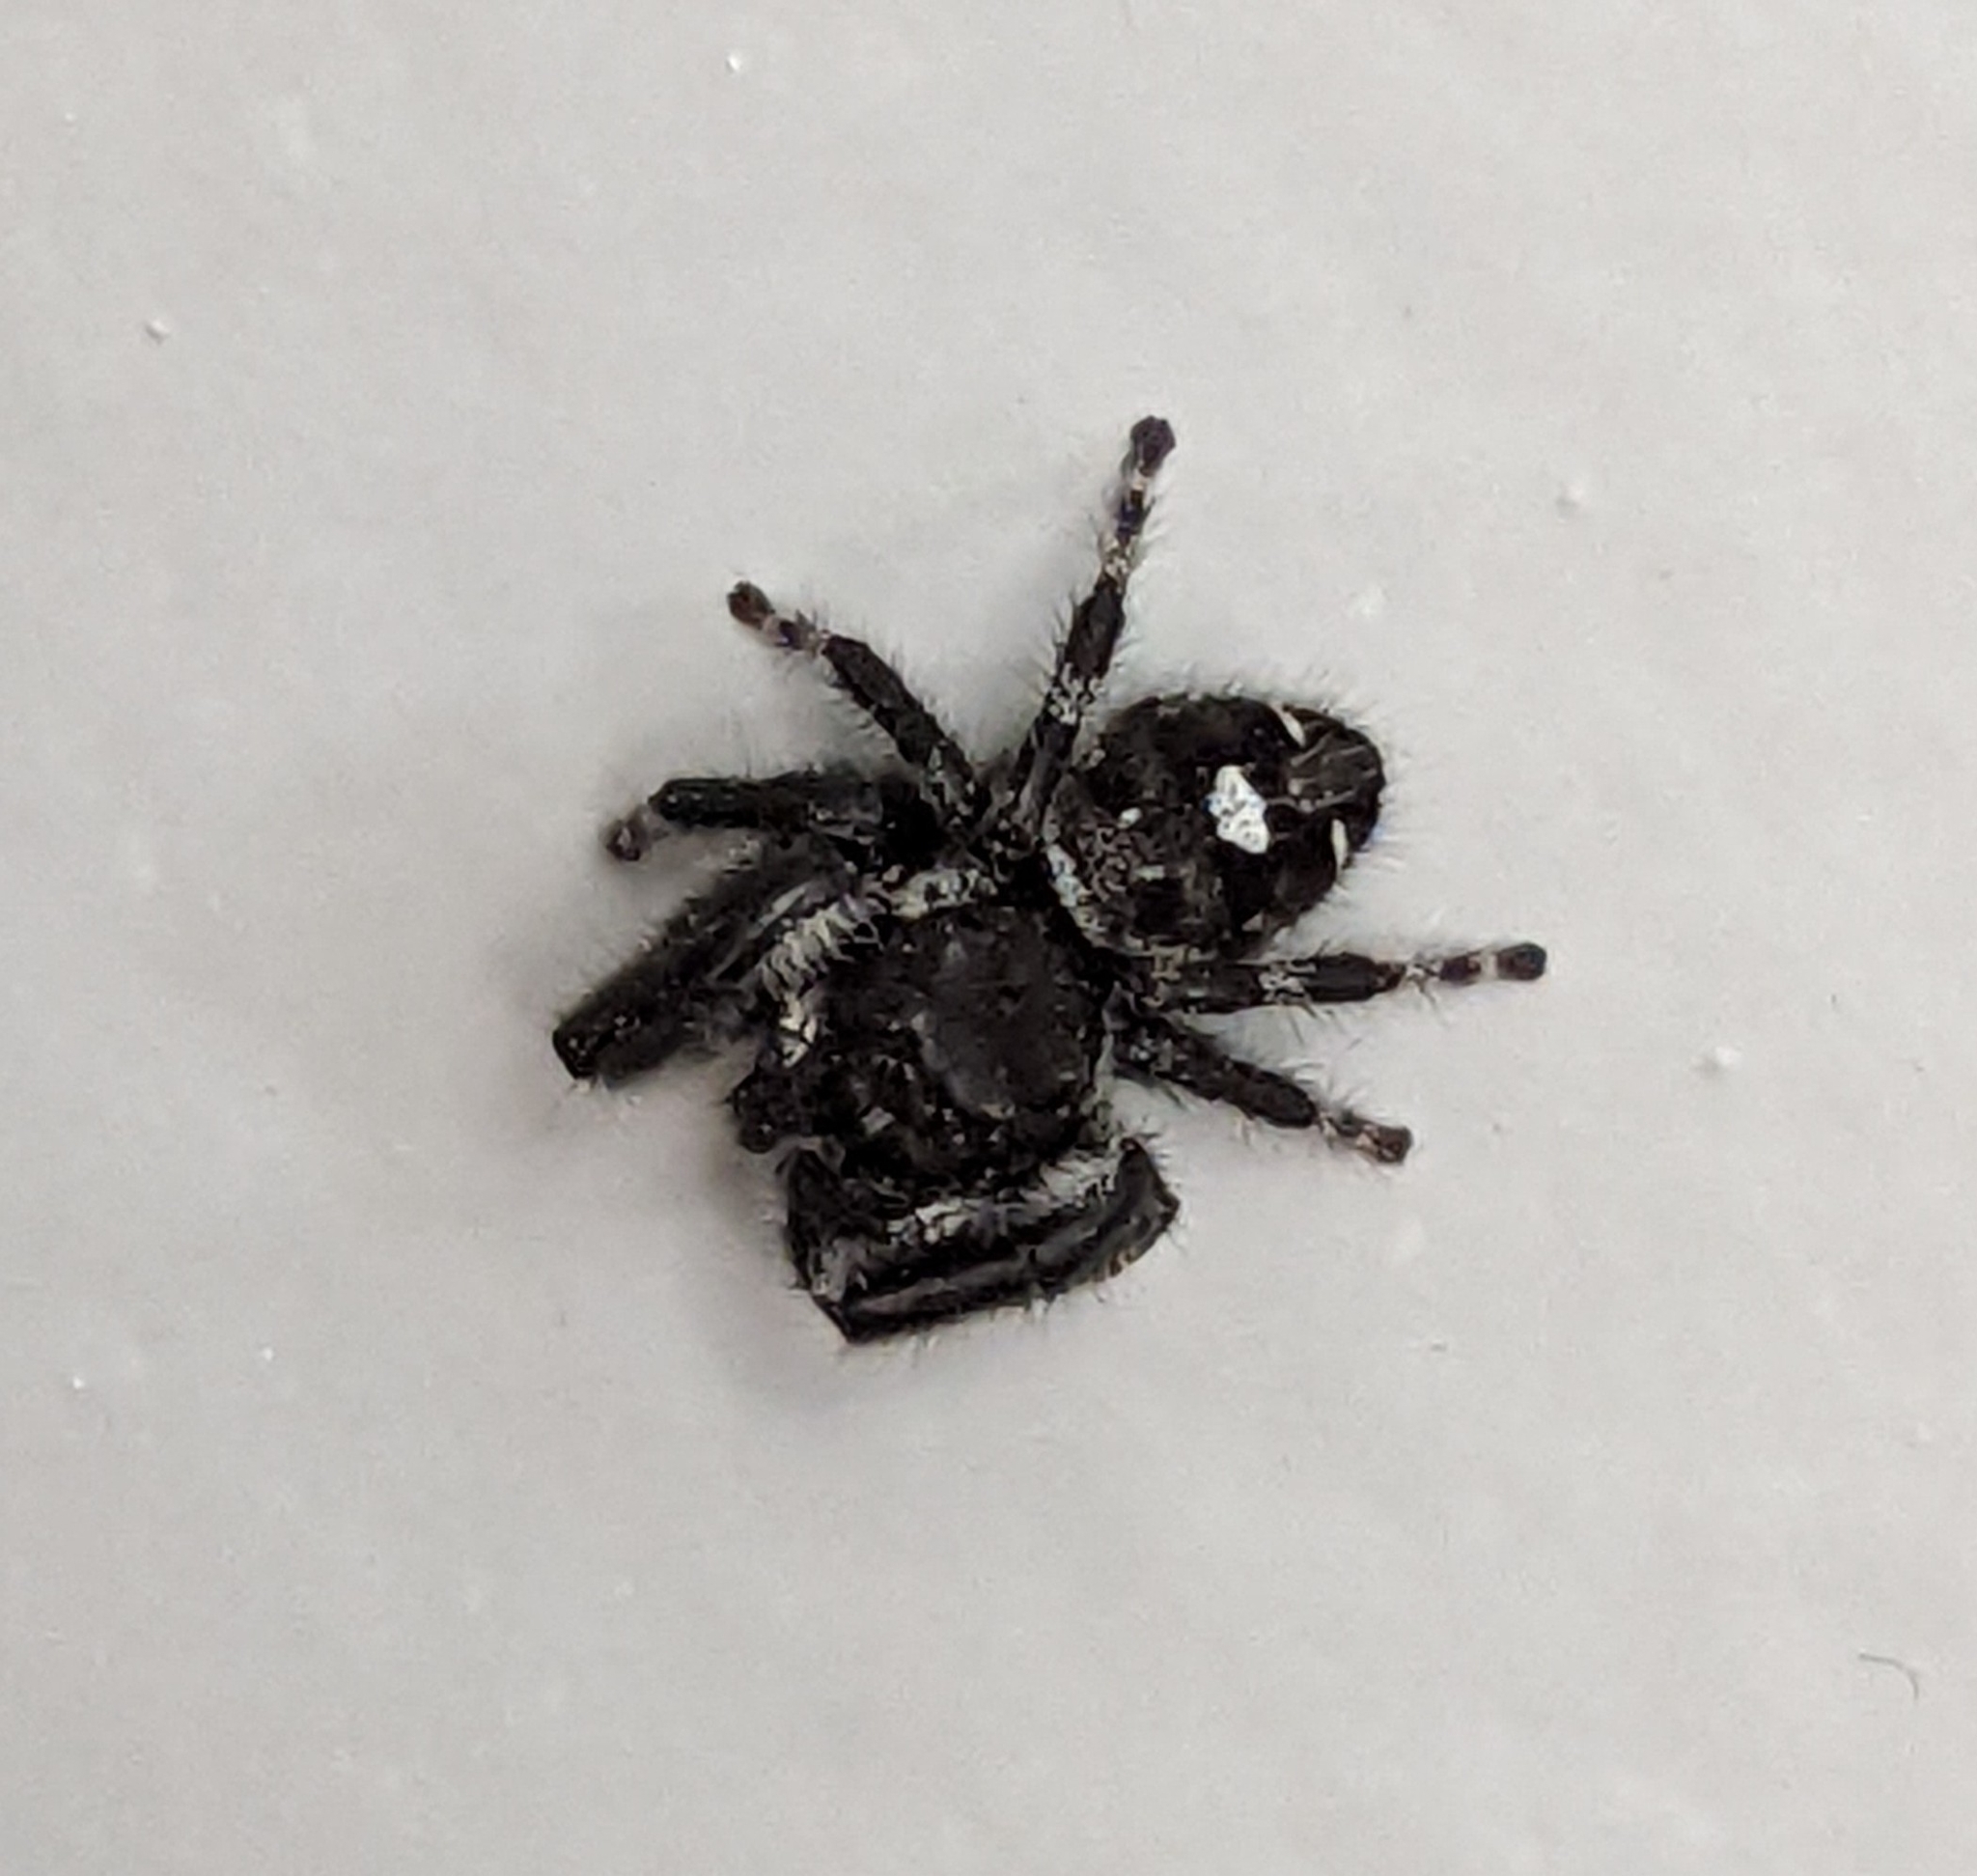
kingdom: Animalia
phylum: Arthropoda
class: Arachnida
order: Araneae
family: Salticidae
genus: Phidippus
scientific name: Phidippus audax
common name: Bold jumper
